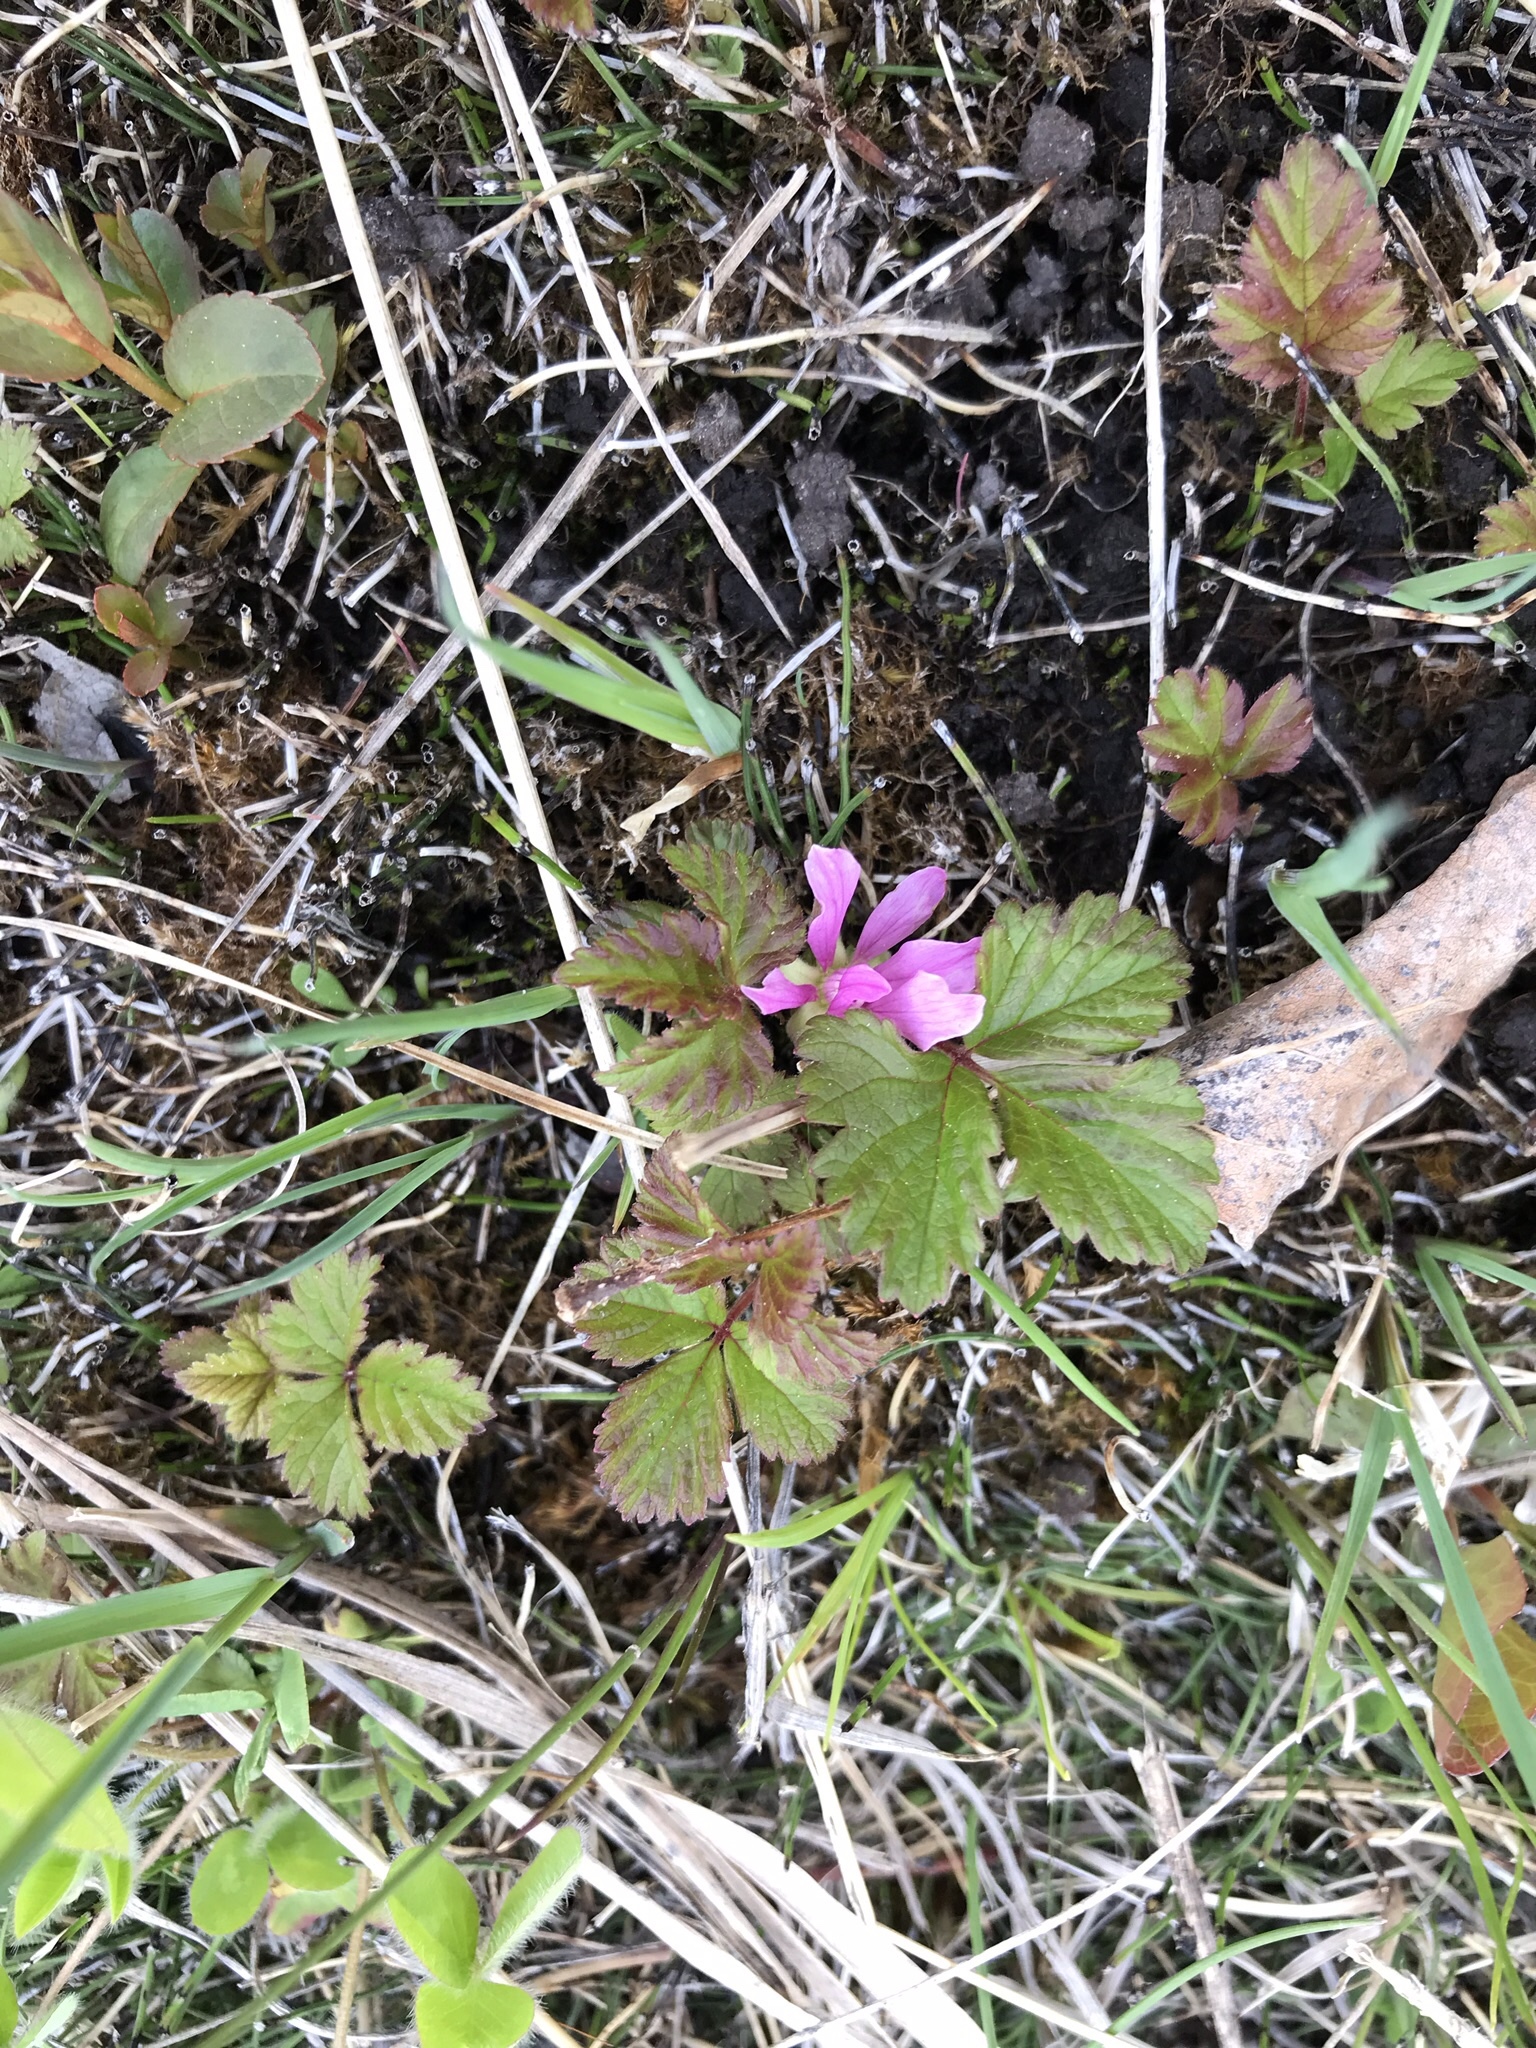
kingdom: Plantae
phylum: Tracheophyta
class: Magnoliopsida
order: Rosales
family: Rosaceae
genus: Rubus
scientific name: Rubus arcticus
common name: Arctic bramble
